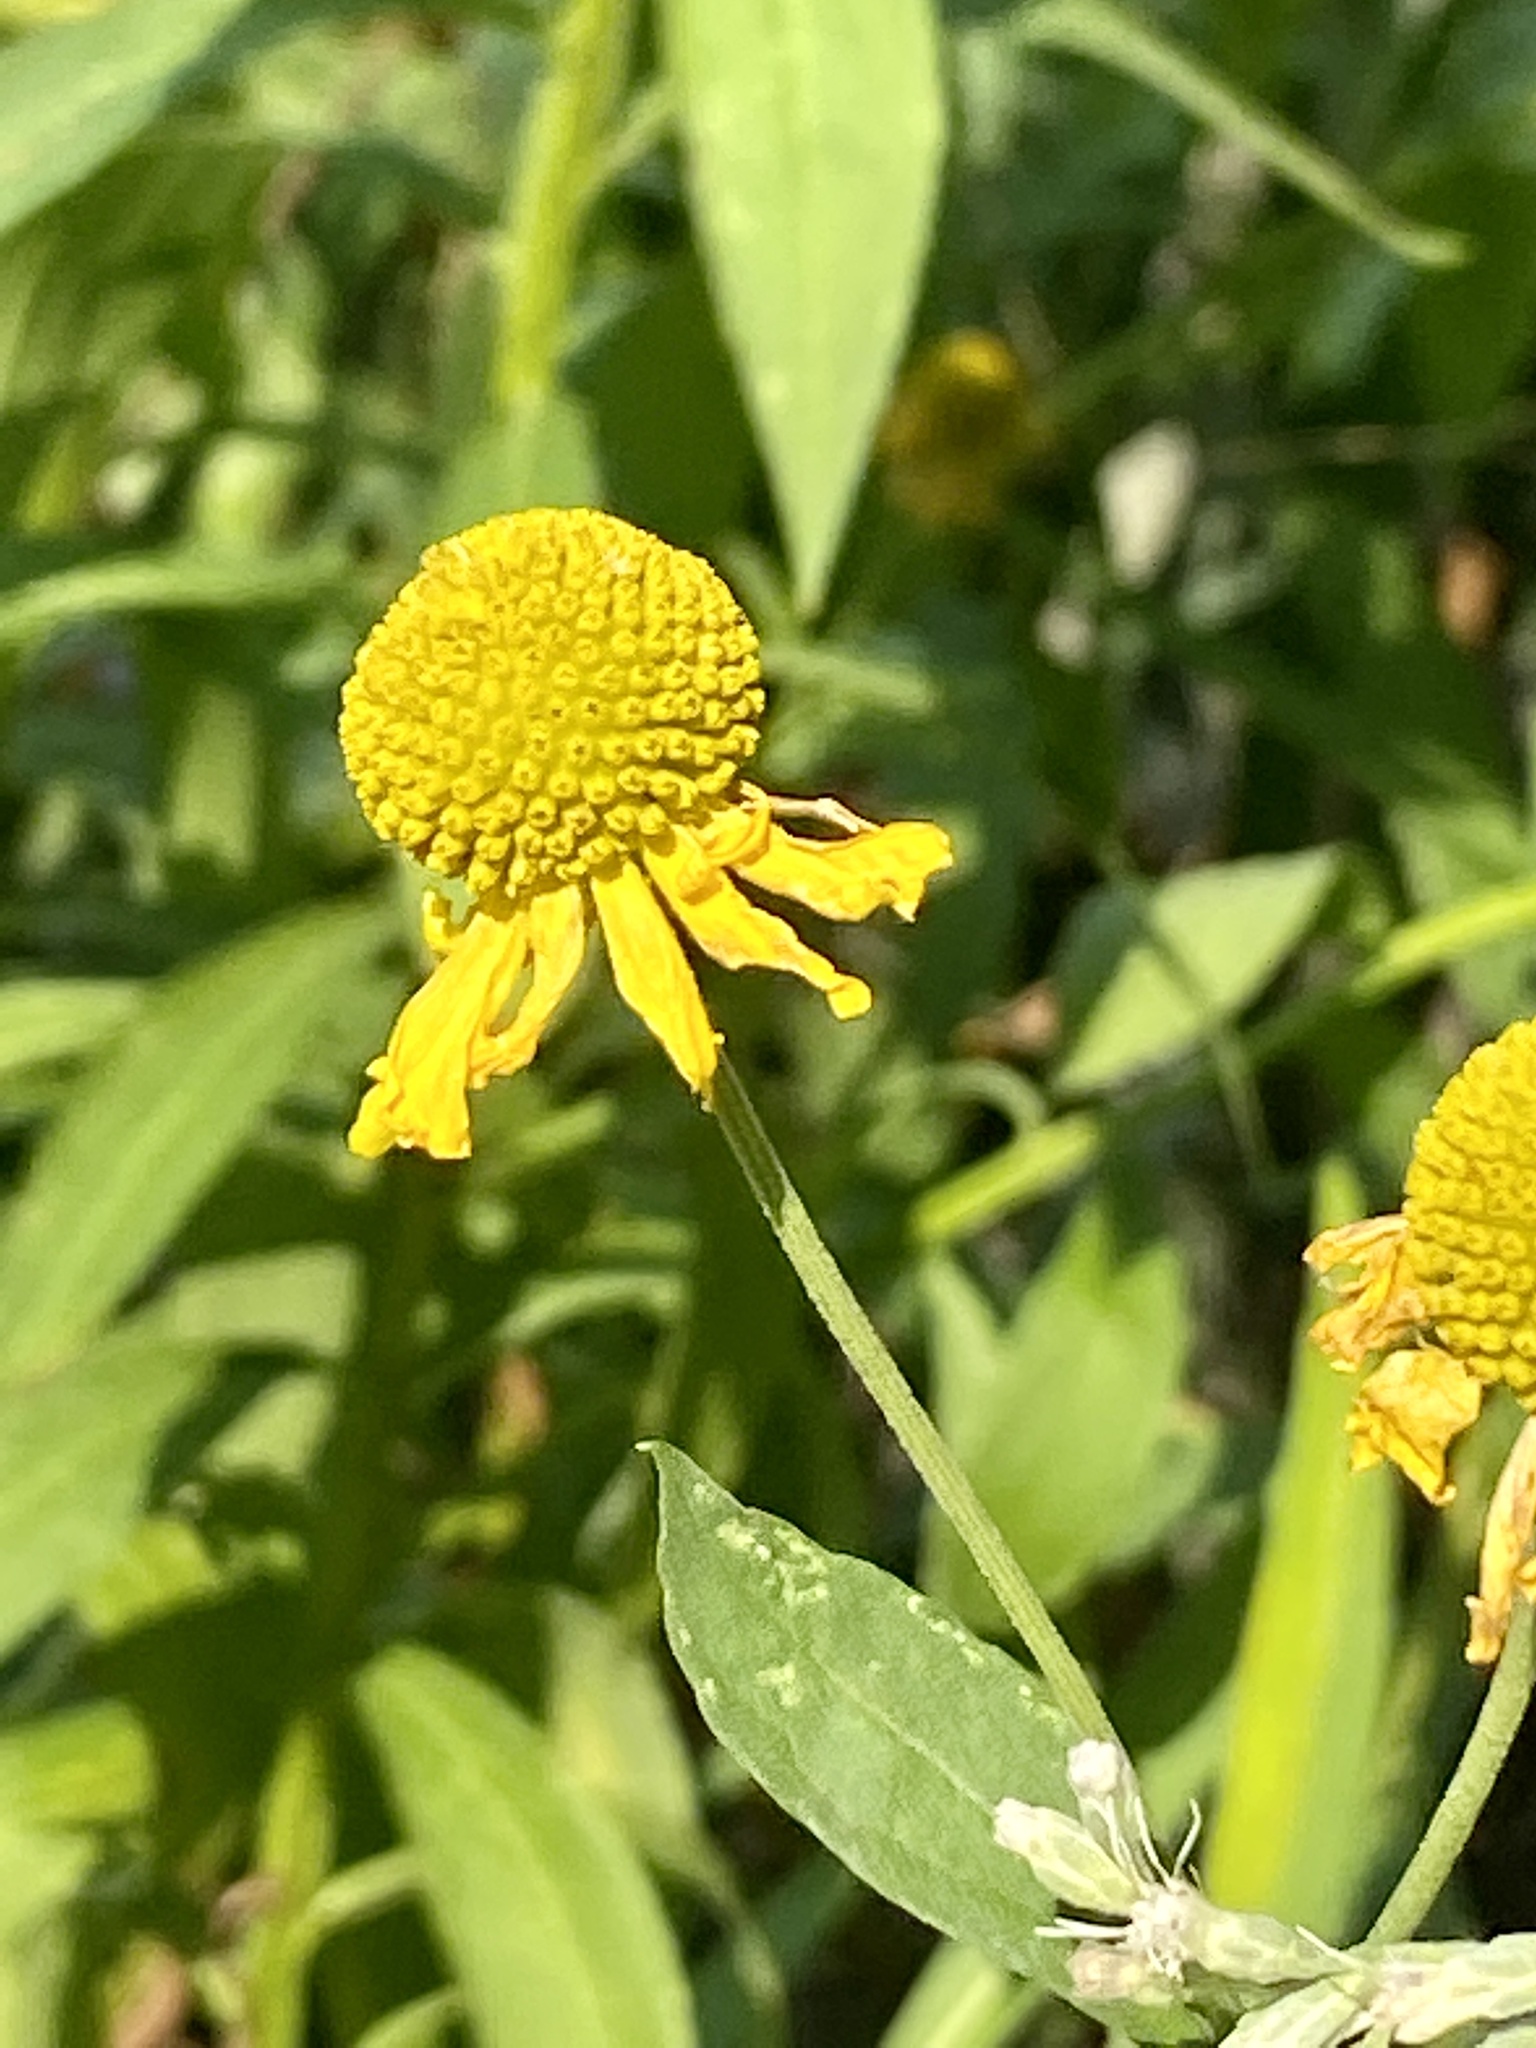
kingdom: Plantae
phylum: Tracheophyta
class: Magnoliopsida
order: Asterales
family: Asteraceae
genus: Helenium
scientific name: Helenium autumnale
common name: Sneezeweed
